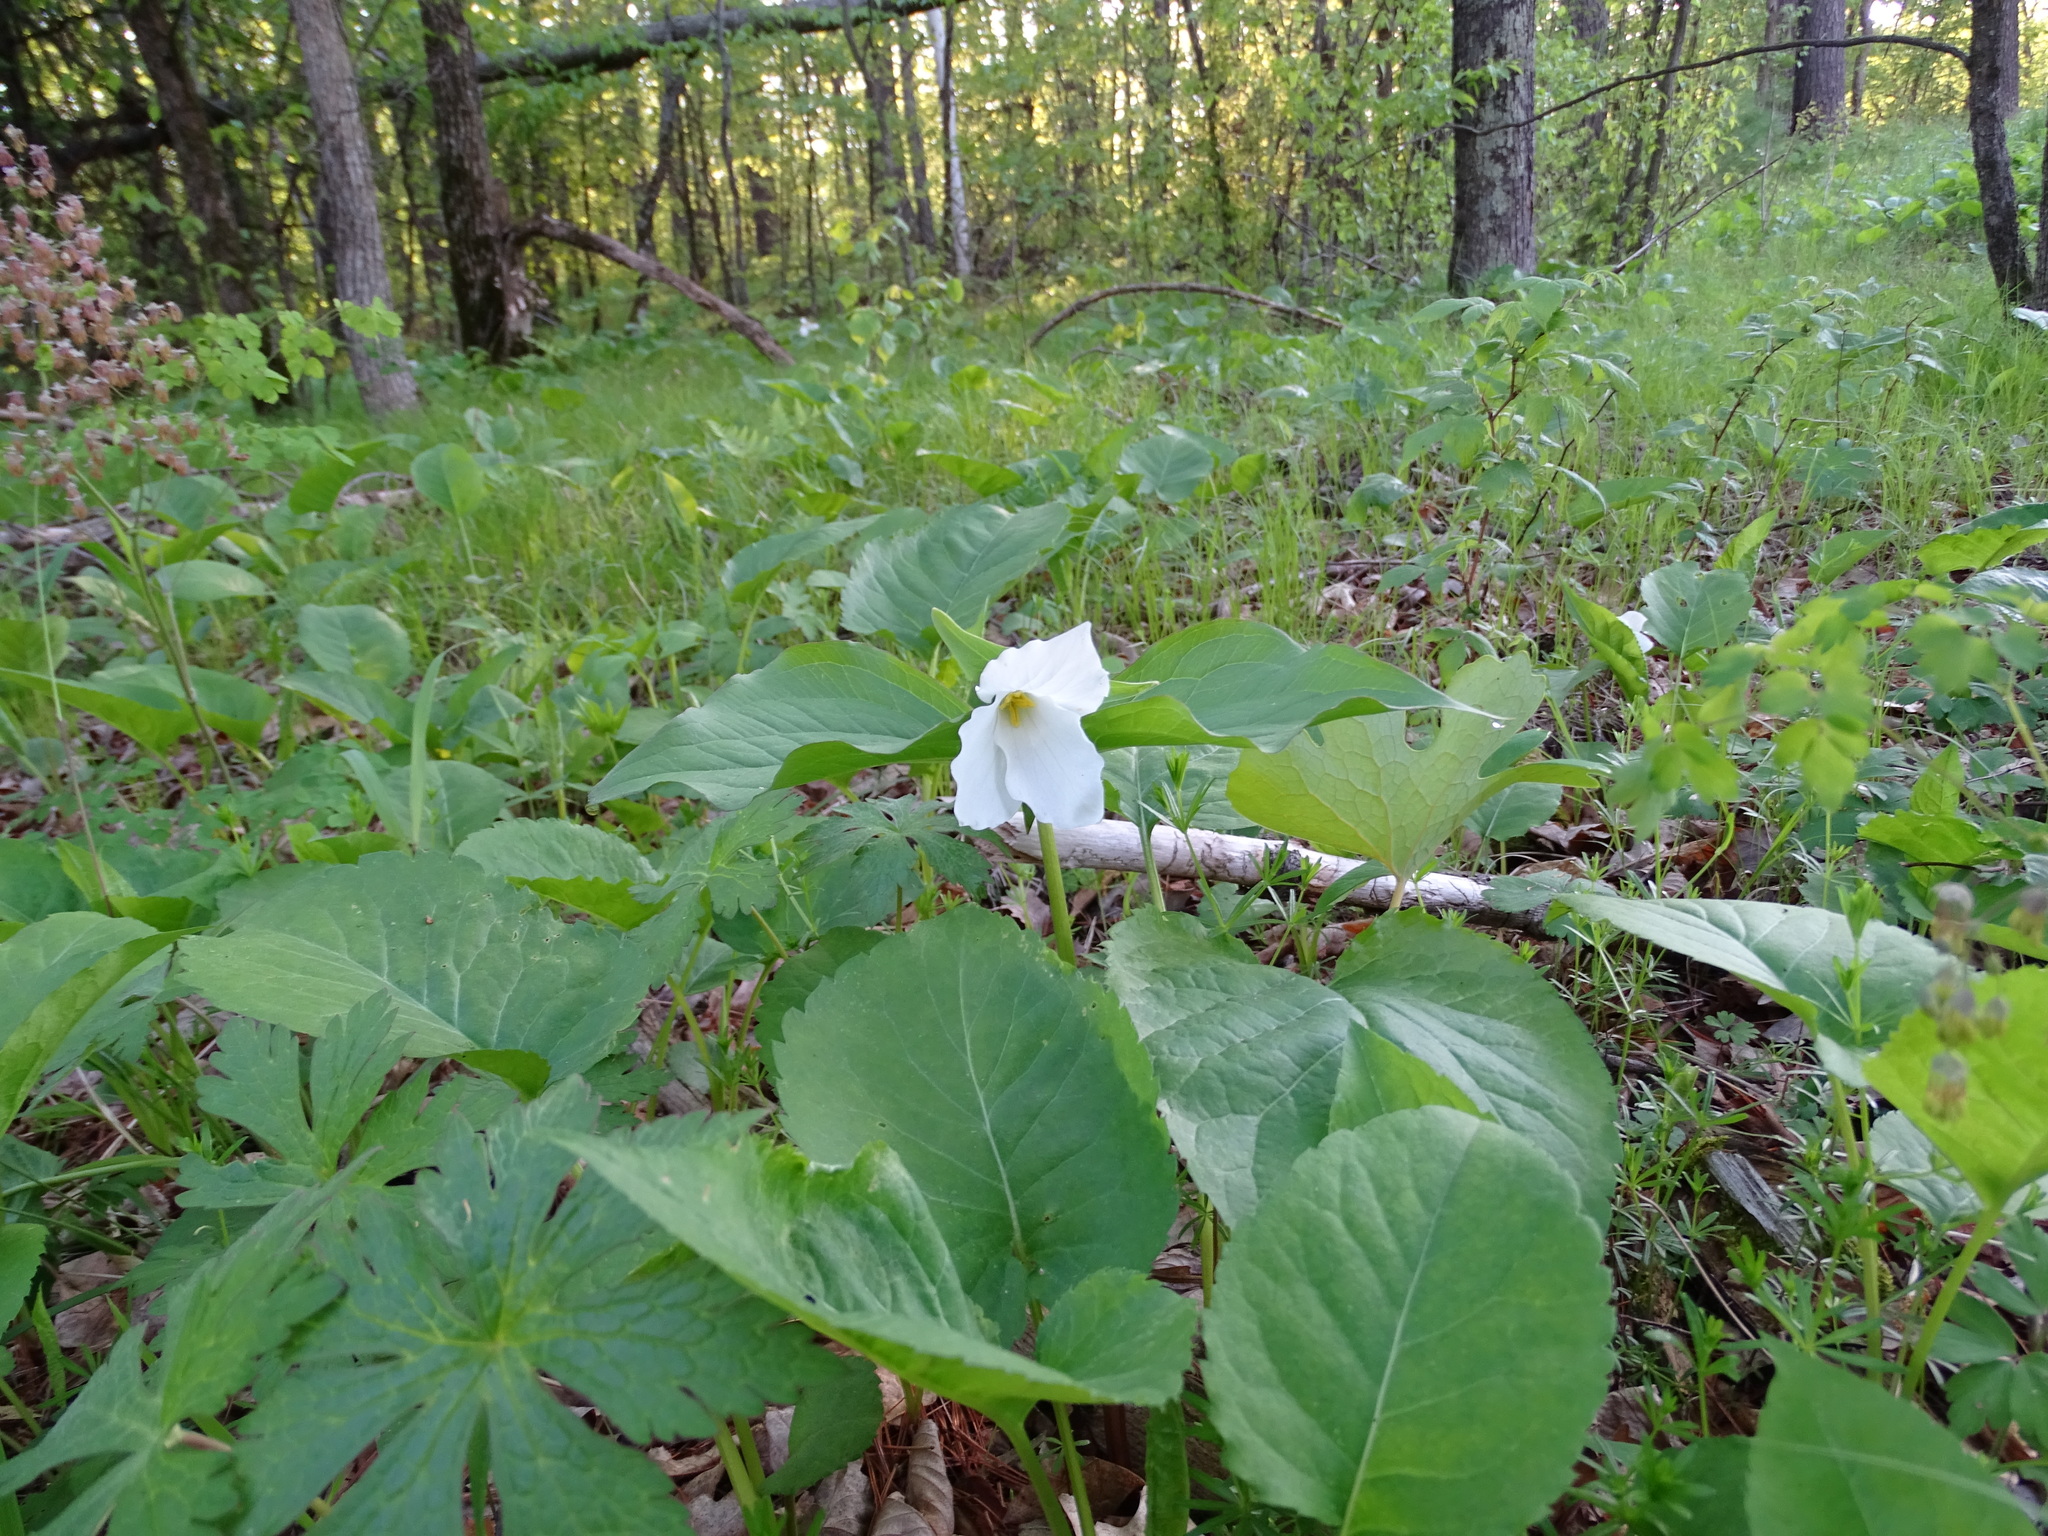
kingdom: Plantae
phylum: Tracheophyta
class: Liliopsida
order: Liliales
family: Melanthiaceae
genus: Trillium
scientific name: Trillium grandiflorum
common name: Great white trillium
